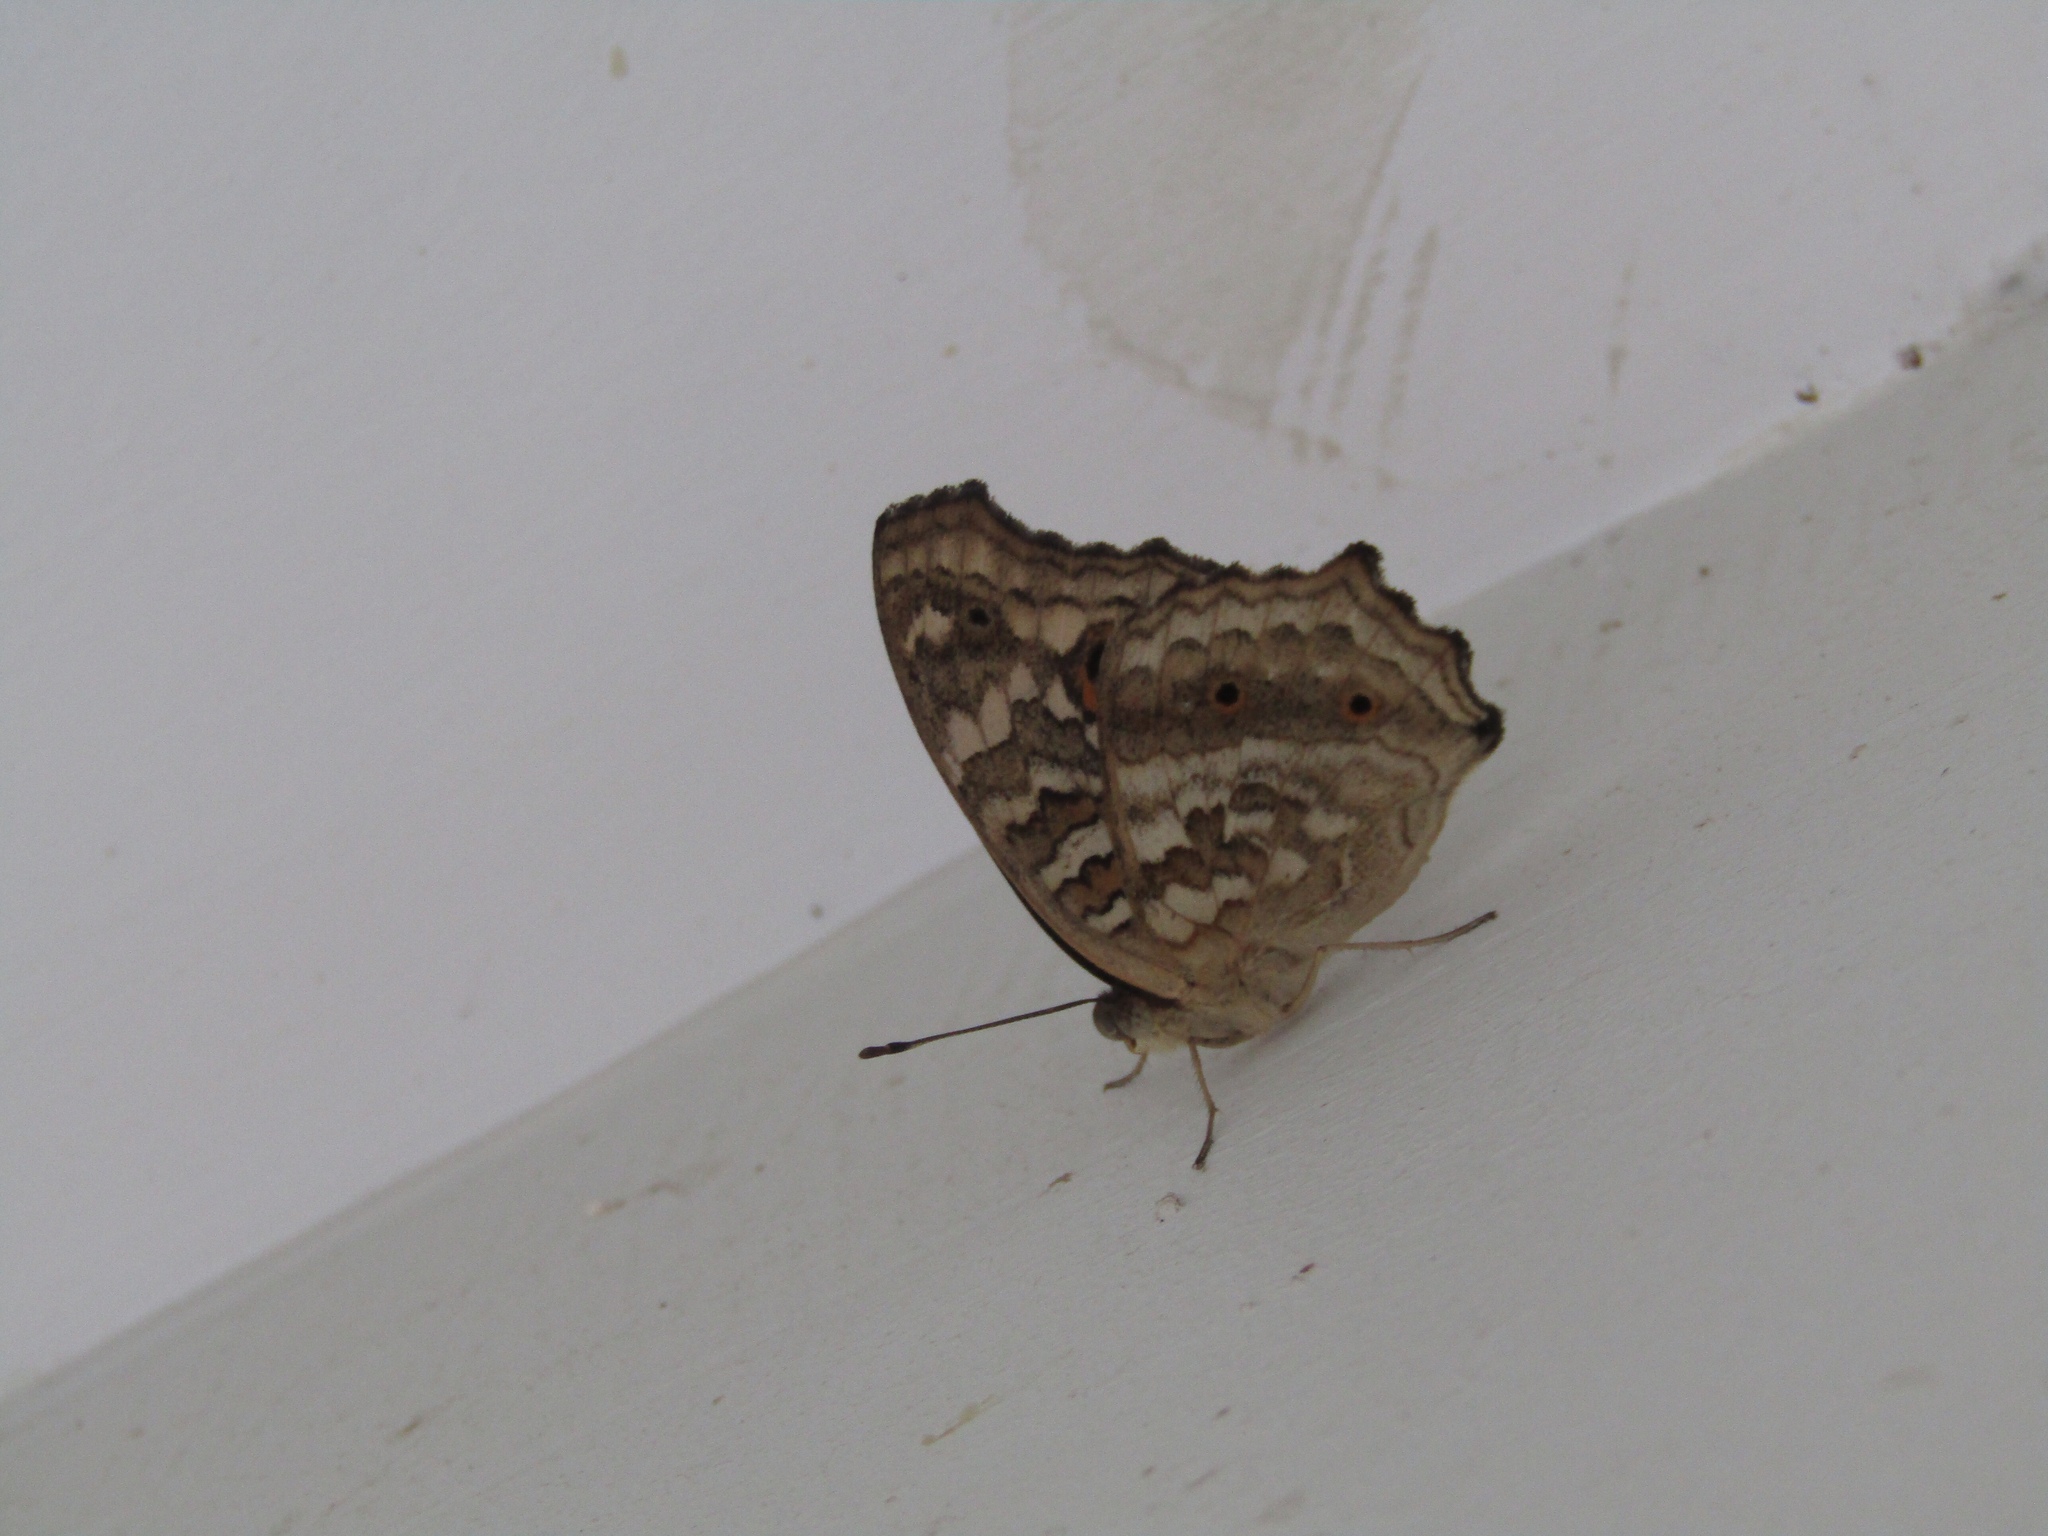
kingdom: Animalia
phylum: Arthropoda
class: Insecta
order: Lepidoptera
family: Nymphalidae
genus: Junonia
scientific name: Junonia lemonias
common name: Lemon pansy
